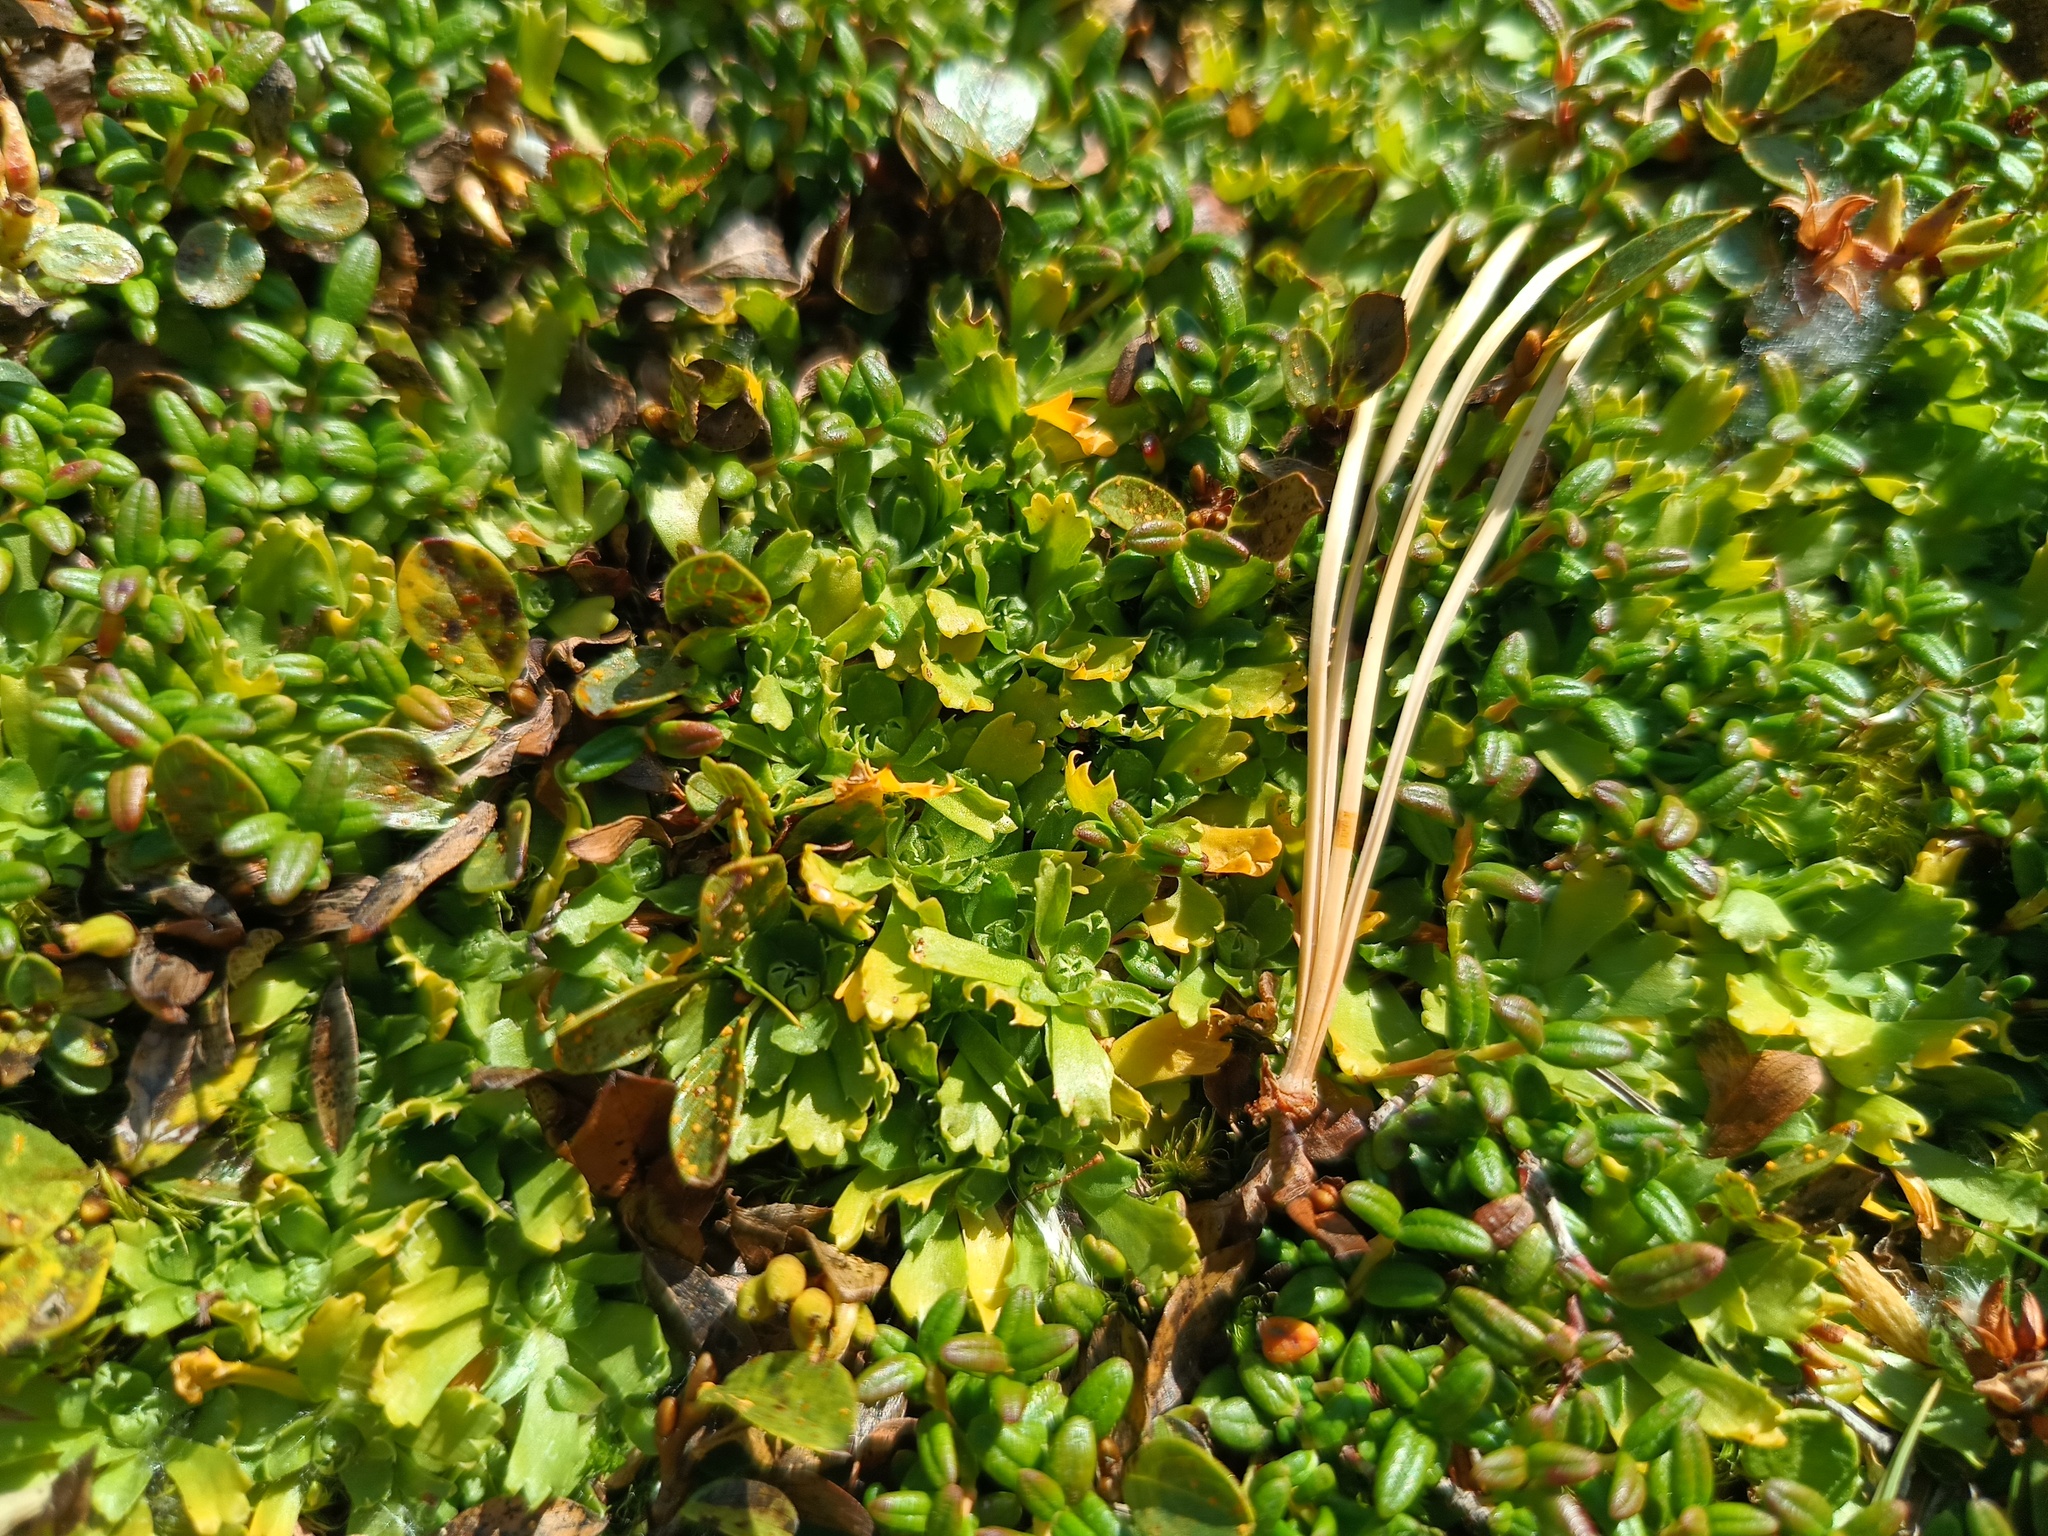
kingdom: Plantae
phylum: Tracheophyta
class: Magnoliopsida
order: Ericales
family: Primulaceae
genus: Primula
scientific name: Primula minima
